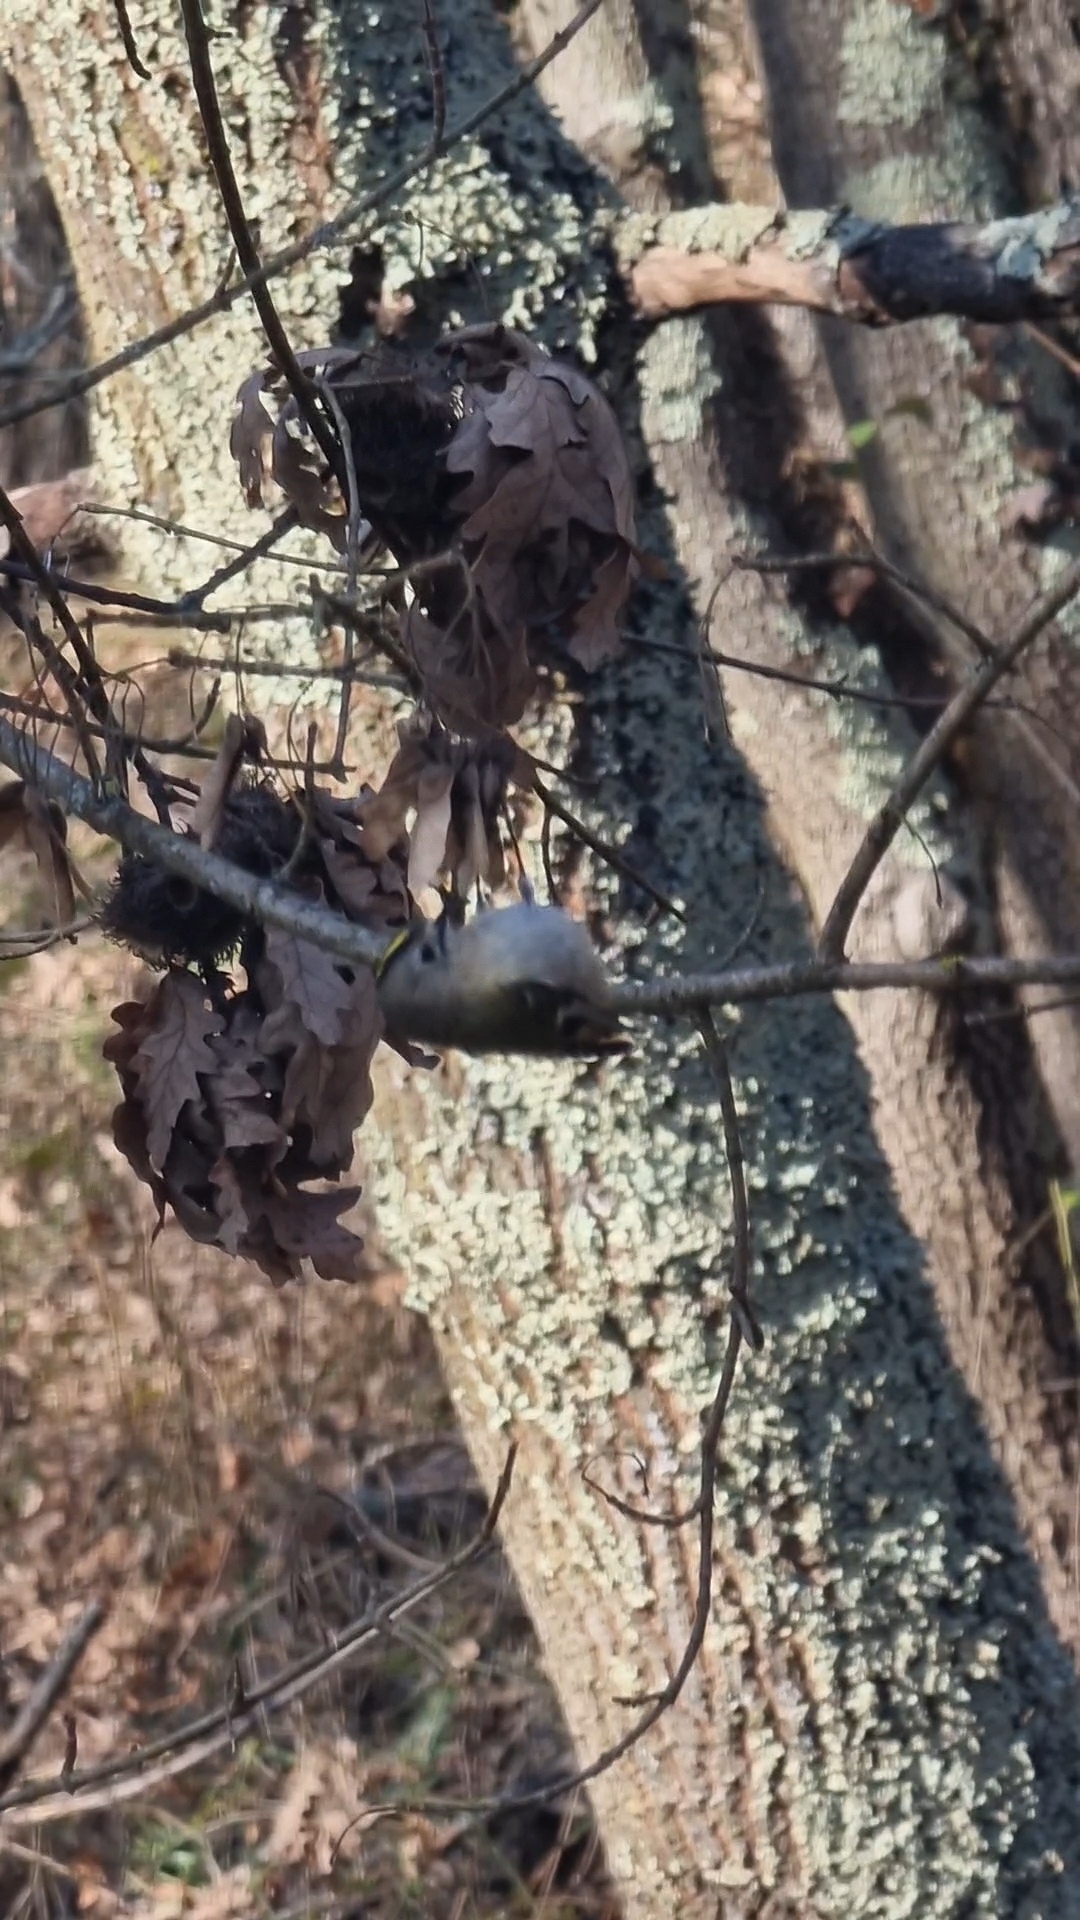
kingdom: Animalia
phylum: Chordata
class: Aves
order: Passeriformes
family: Regulidae
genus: Regulus
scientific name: Regulus regulus
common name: Goldcrest
